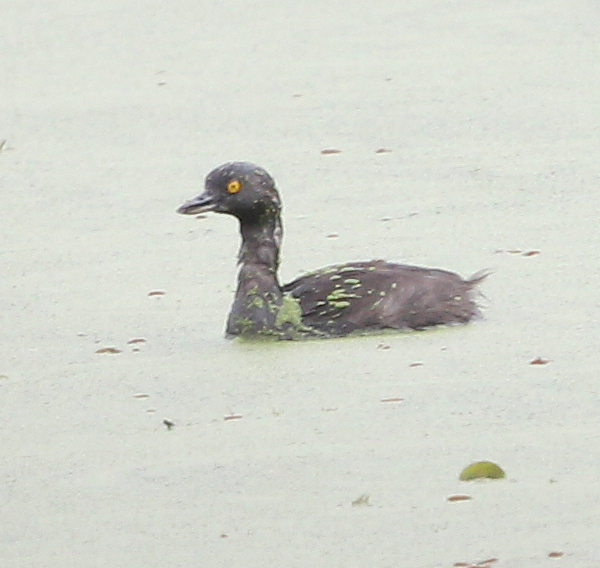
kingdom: Animalia
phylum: Chordata
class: Aves
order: Podicipediformes
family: Podicipedidae
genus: Tachybaptus
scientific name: Tachybaptus dominicus
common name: Least grebe
